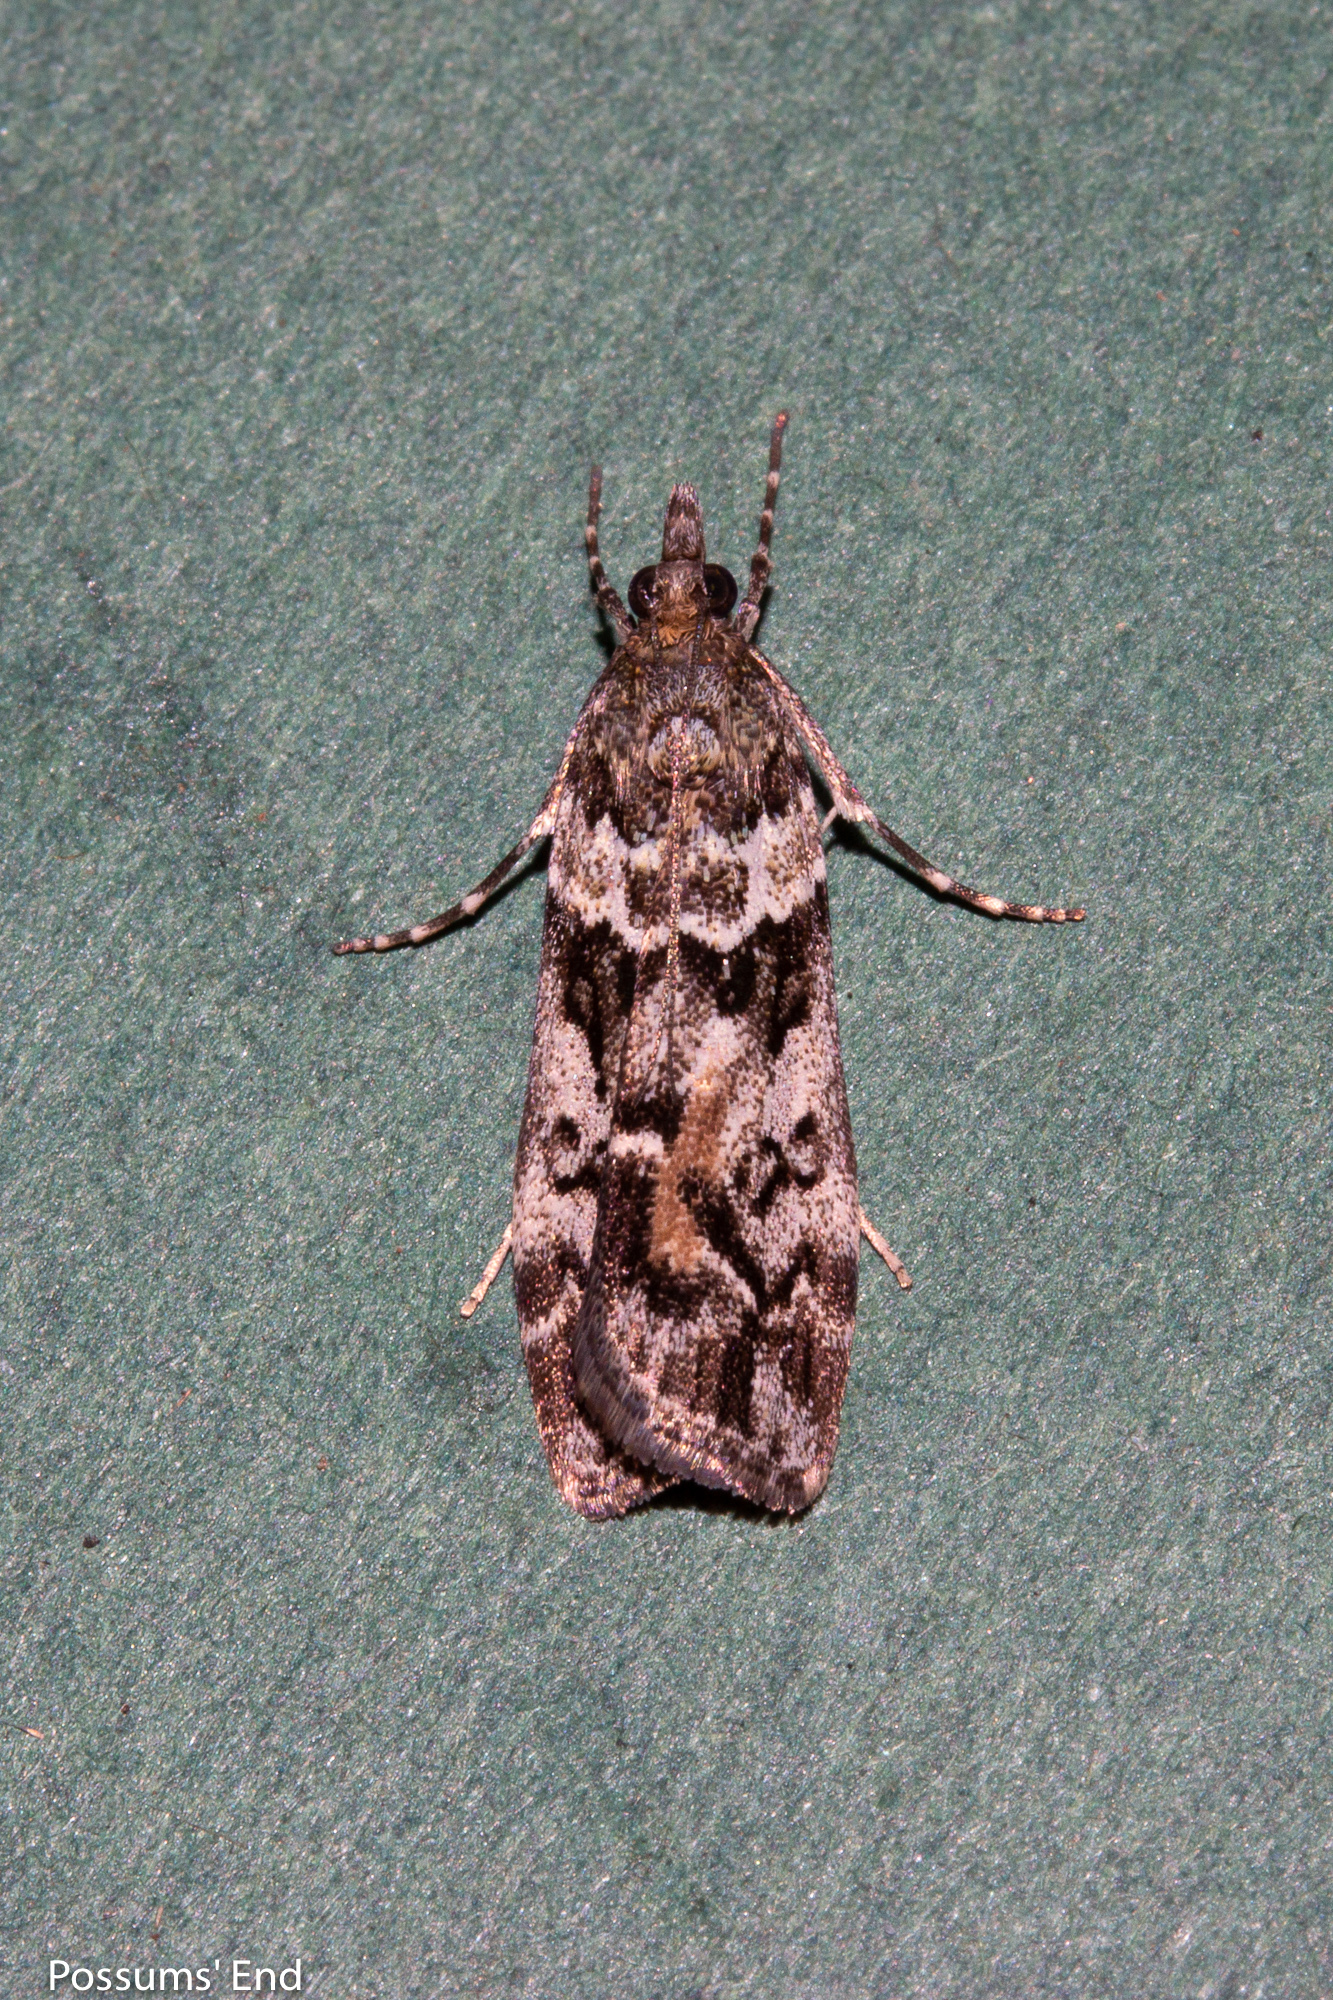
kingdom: Animalia
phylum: Arthropoda
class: Insecta
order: Lepidoptera
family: Crambidae
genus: Eudonia
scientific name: Eudonia submarginalis
